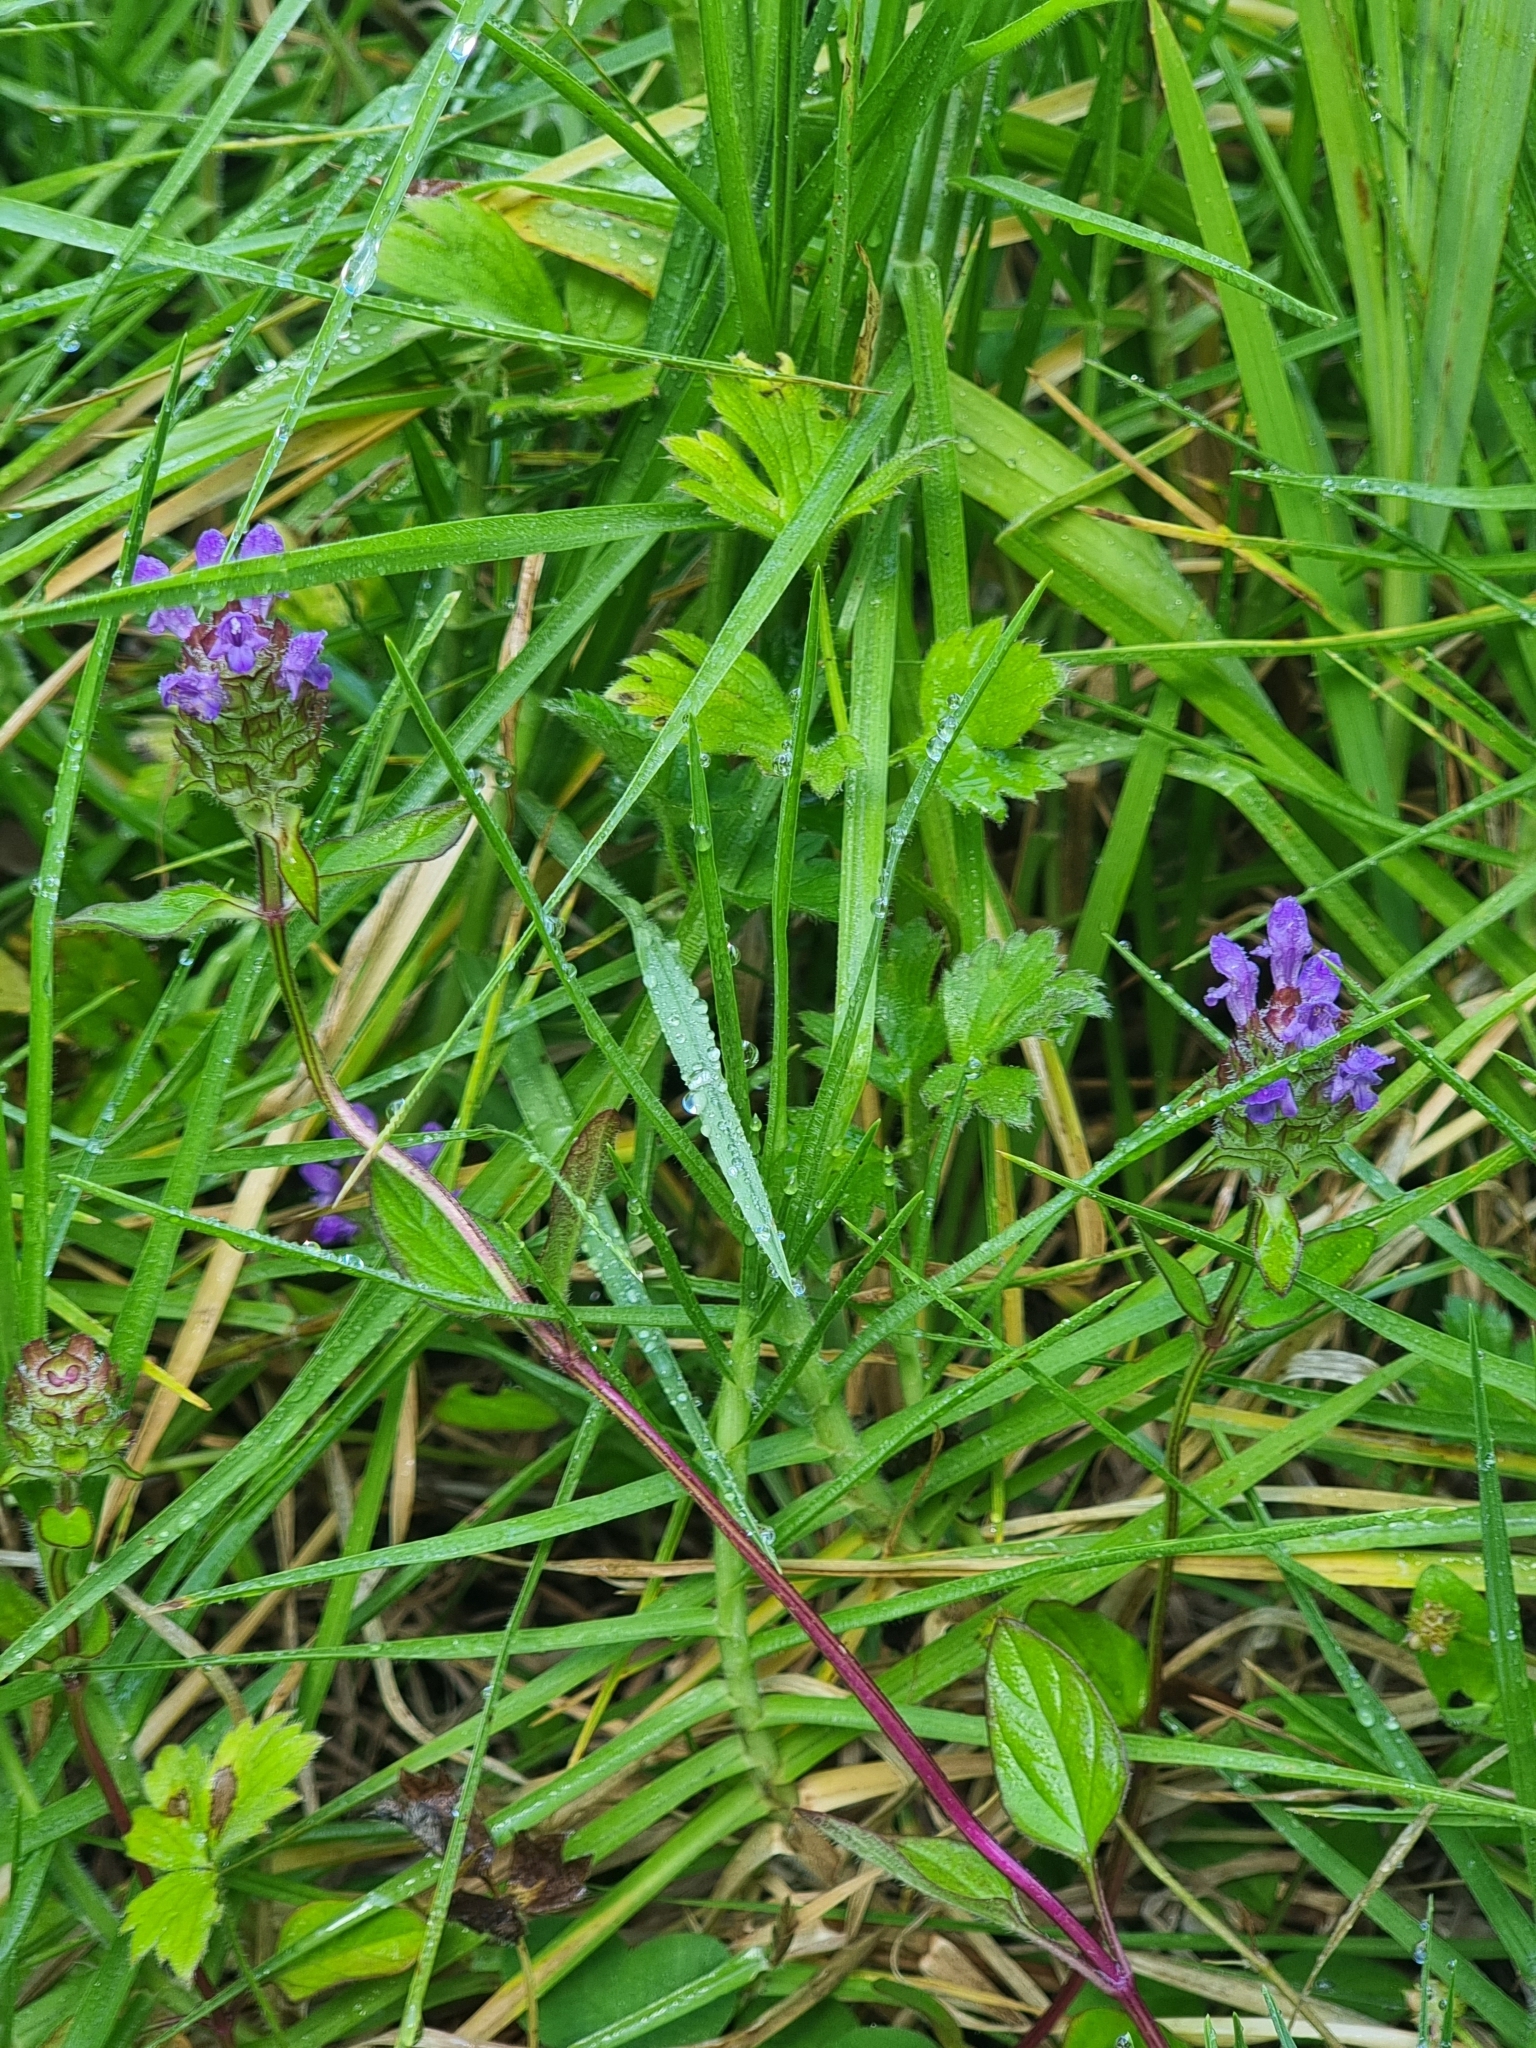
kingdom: Plantae
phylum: Tracheophyta
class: Magnoliopsida
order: Lamiales
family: Lamiaceae
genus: Prunella
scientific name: Prunella vulgaris
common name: Heal-all
